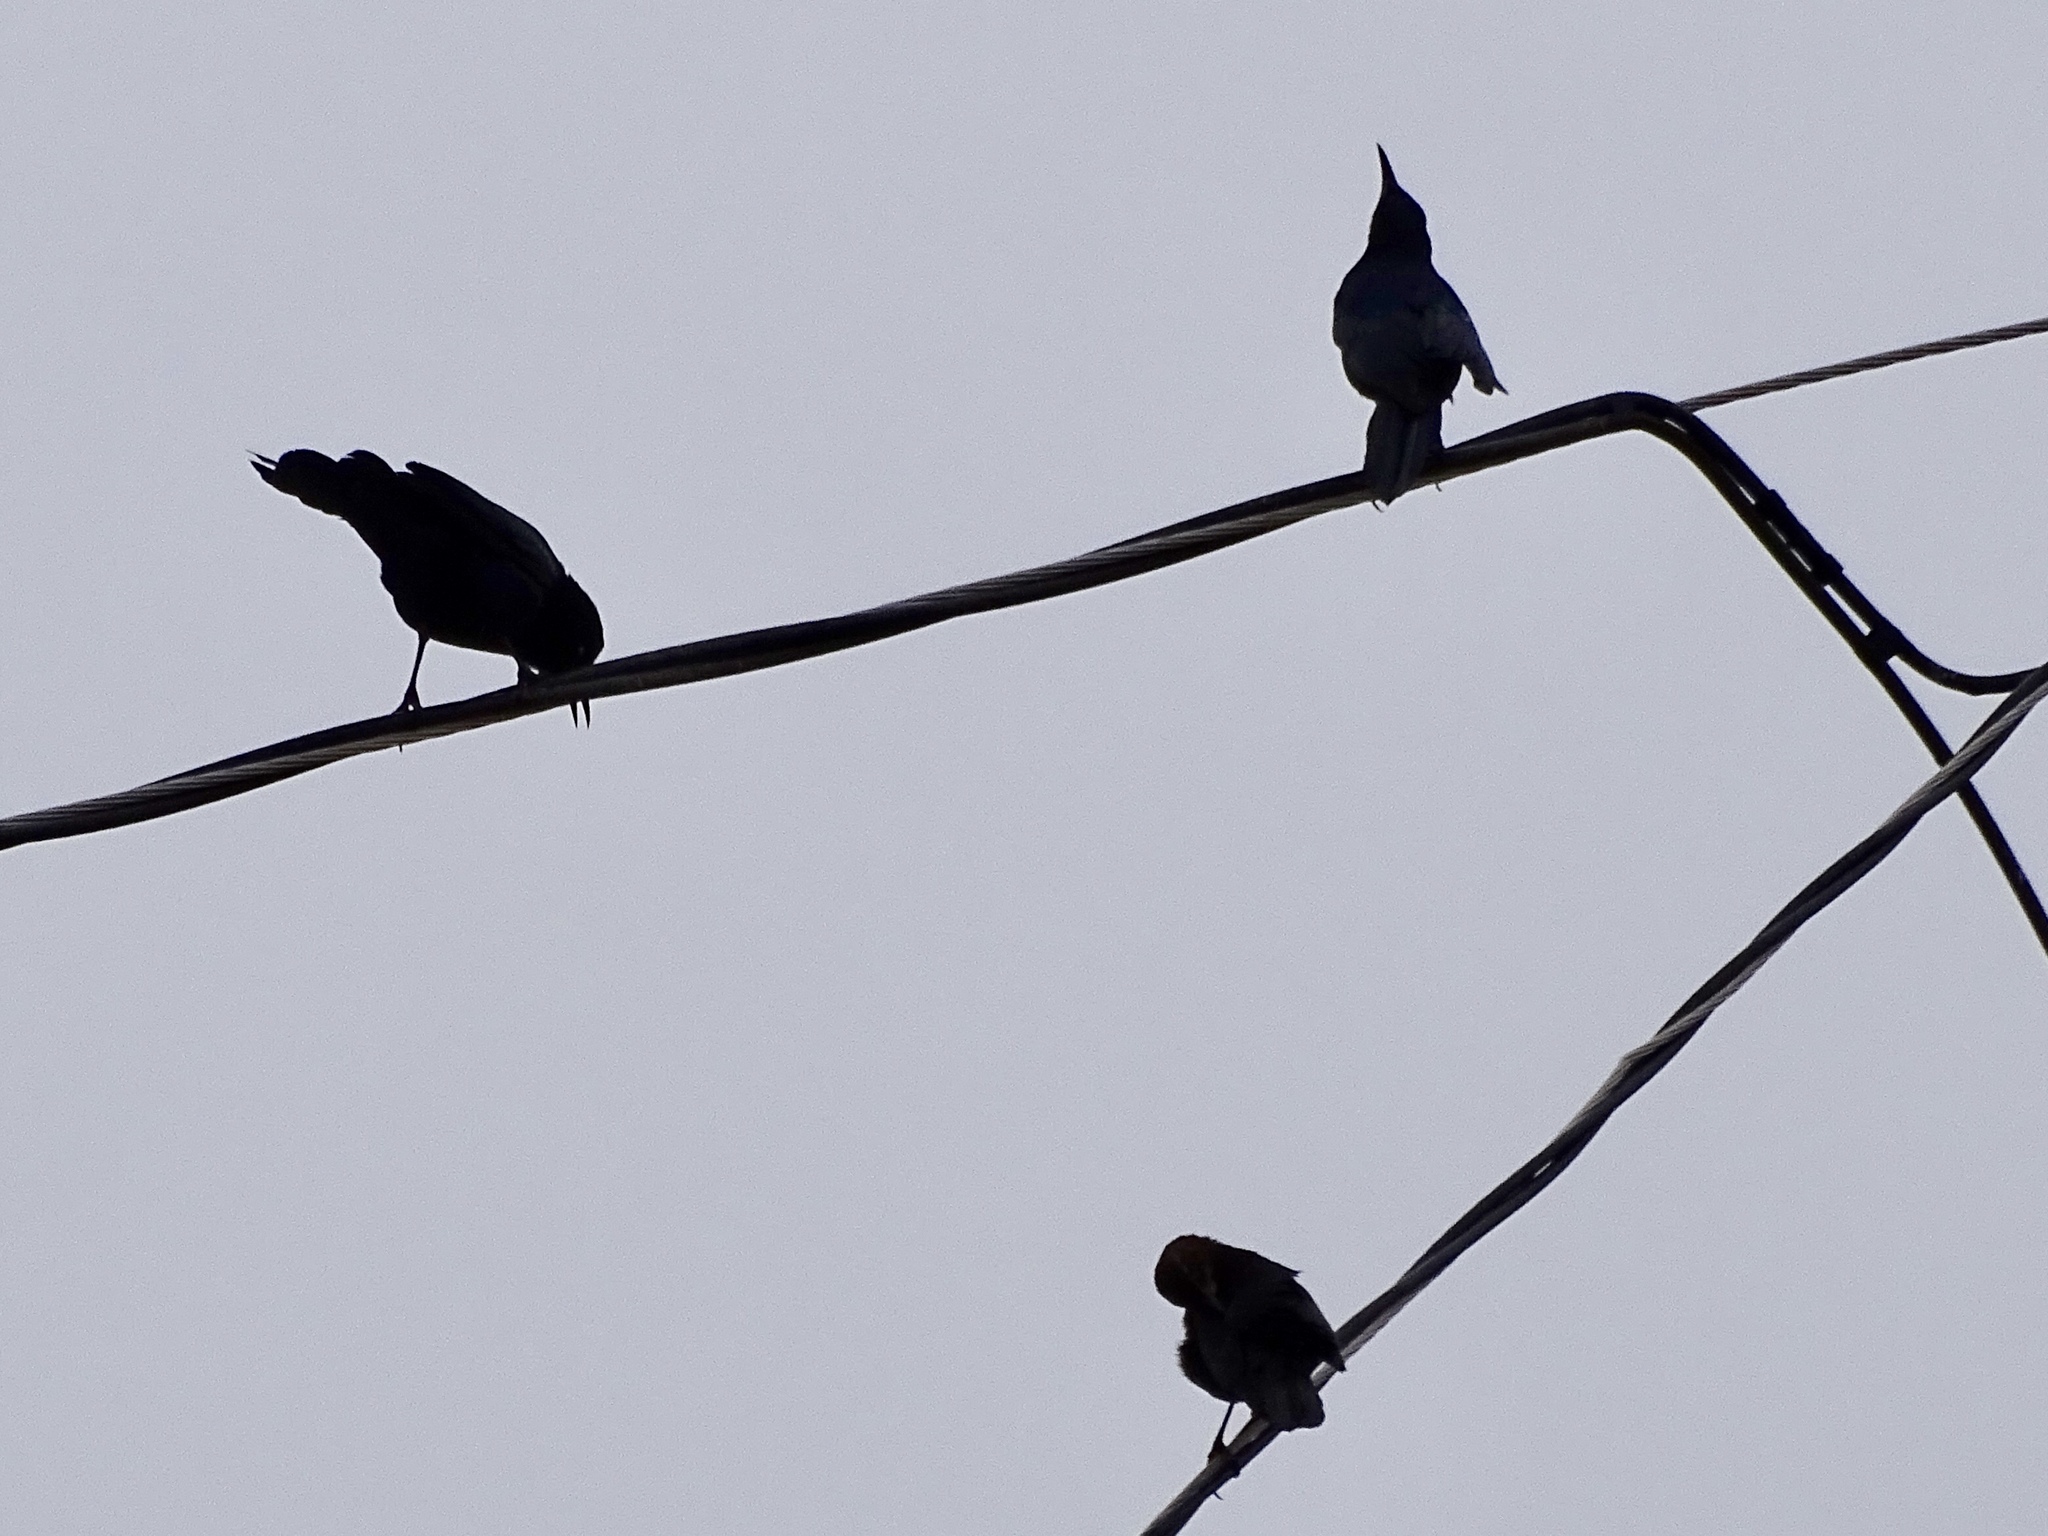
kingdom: Animalia
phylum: Chordata
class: Aves
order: Passeriformes
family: Icteridae
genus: Quiscalus
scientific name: Quiscalus mexicanus
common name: Great-tailed grackle
